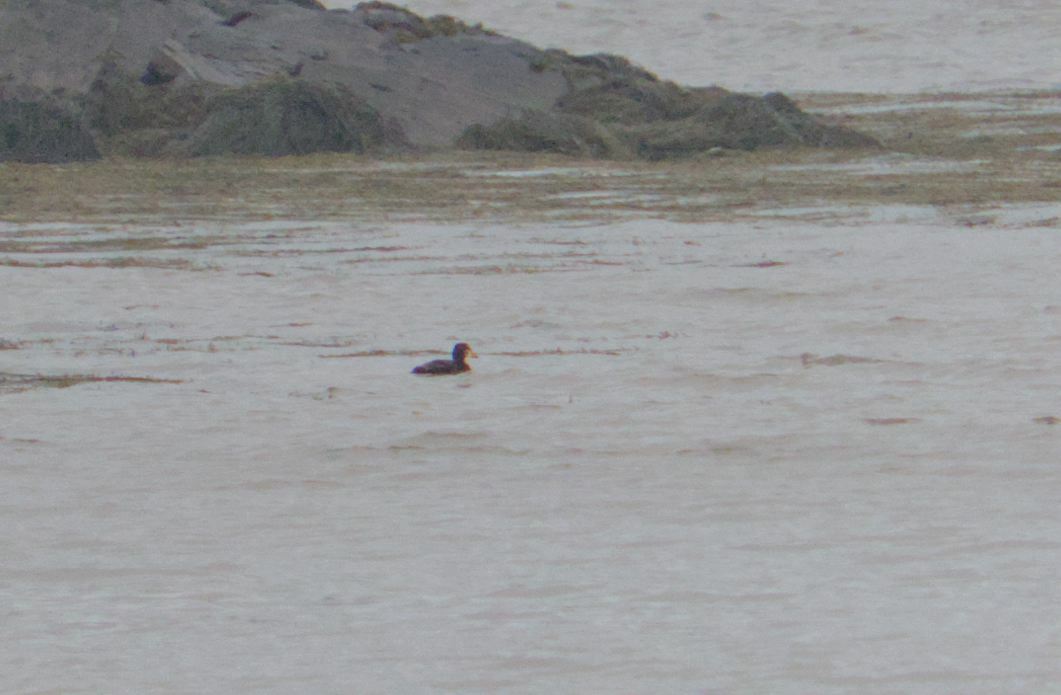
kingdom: Animalia
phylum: Chordata
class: Aves
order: Anseriformes
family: Anatidae
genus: Melanitta
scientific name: Melanitta perspicillata
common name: Surf scoter
